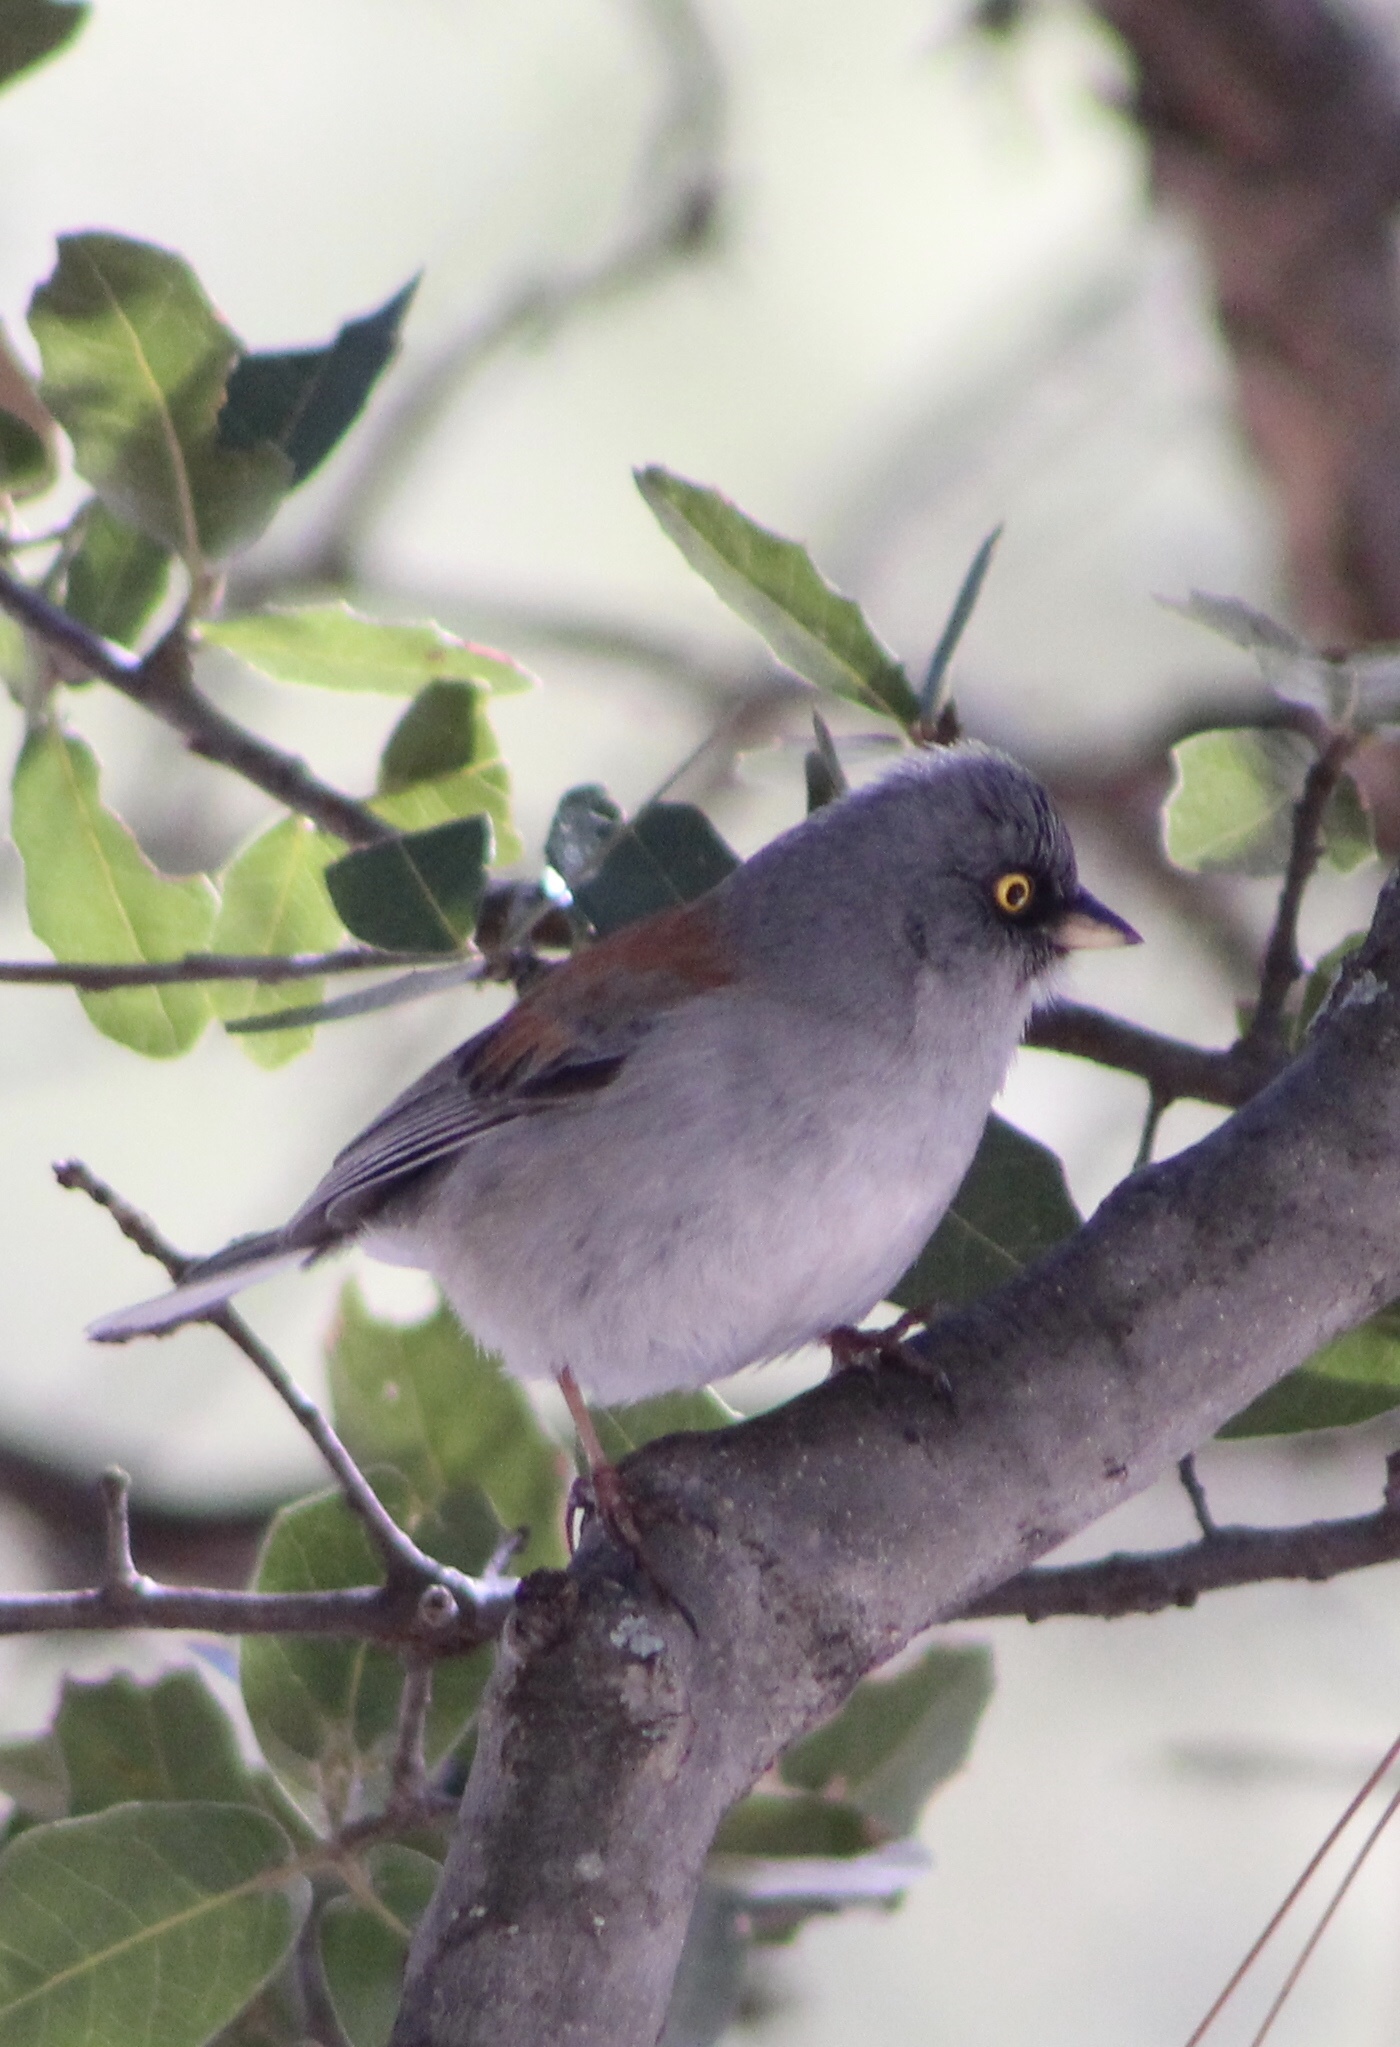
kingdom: Animalia
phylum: Chordata
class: Aves
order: Passeriformes
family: Passerellidae
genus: Junco
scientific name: Junco phaeonotus
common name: Yellow-eyed junco
